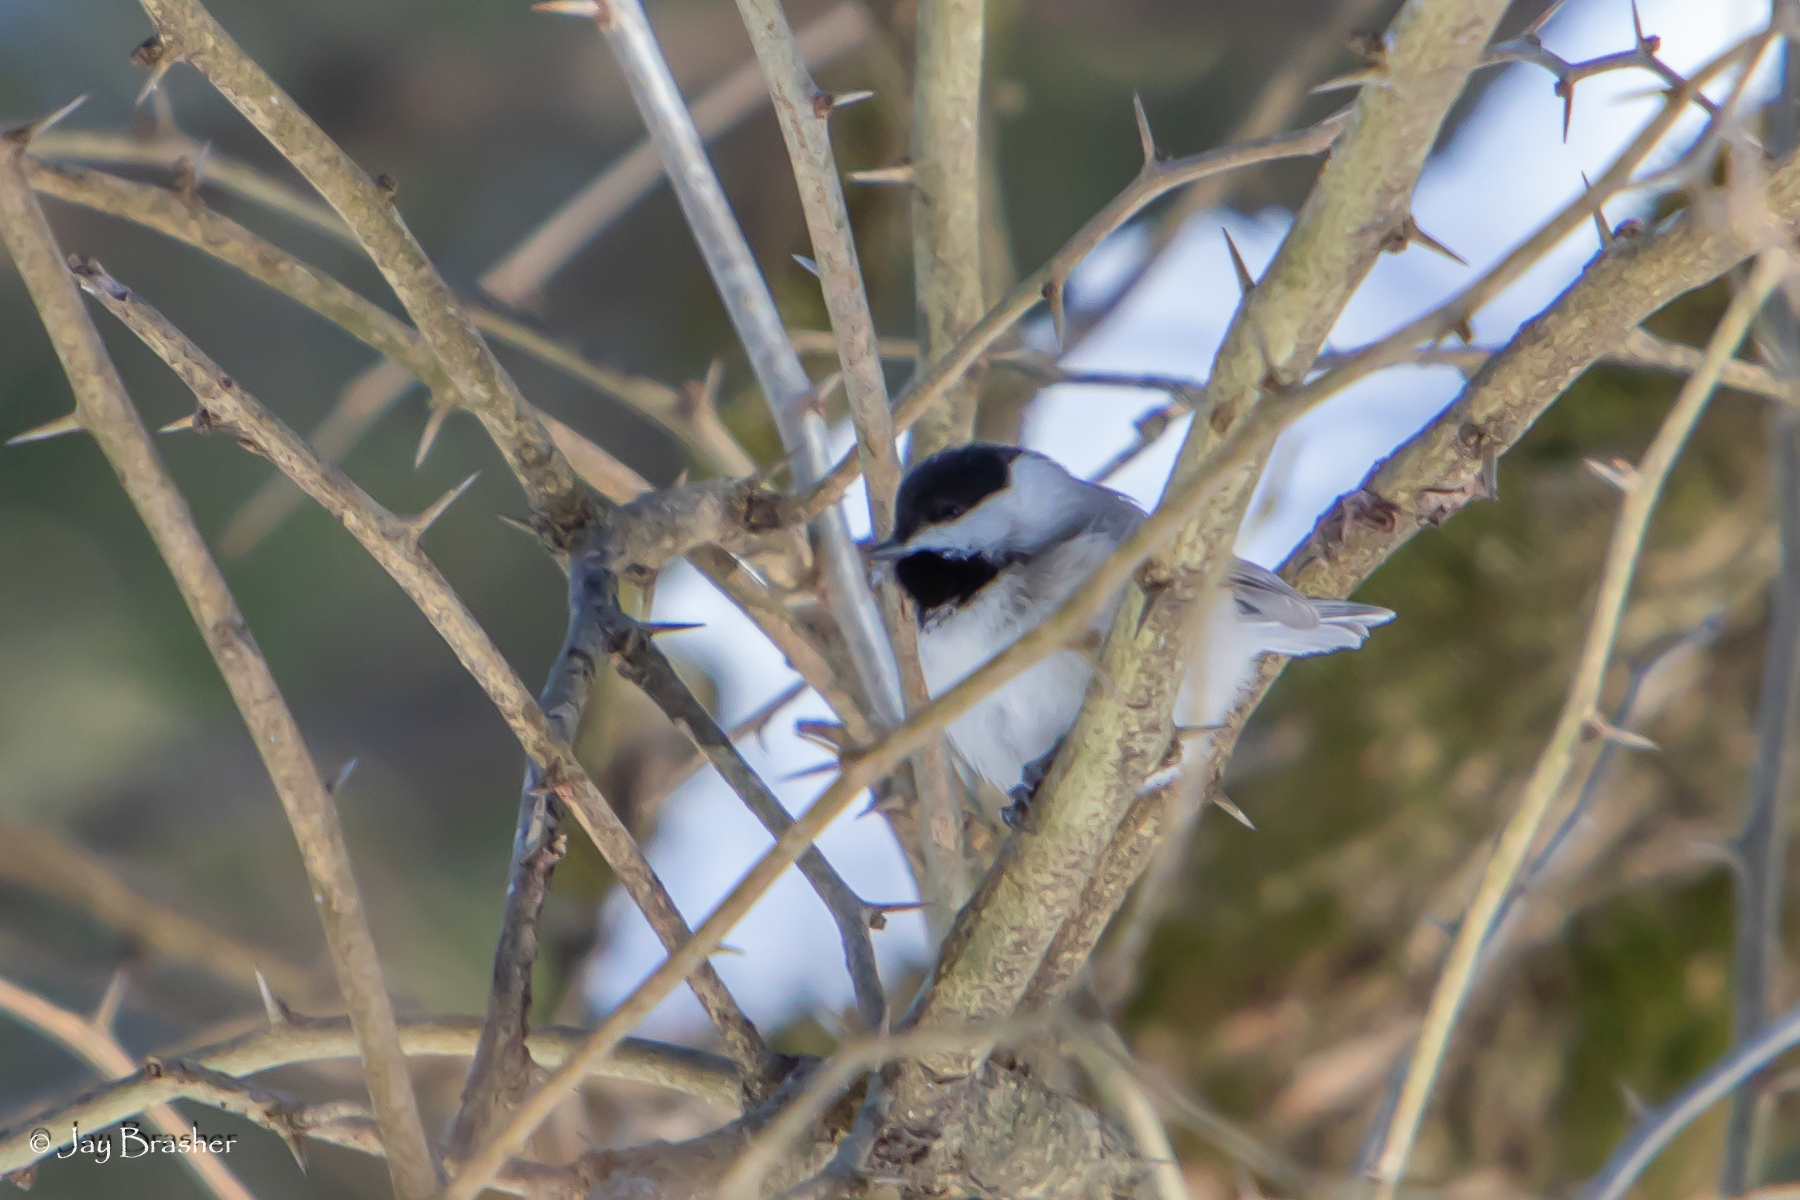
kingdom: Animalia
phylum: Chordata
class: Aves
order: Passeriformes
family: Paridae
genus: Poecile
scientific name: Poecile carolinensis
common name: Carolina chickadee
